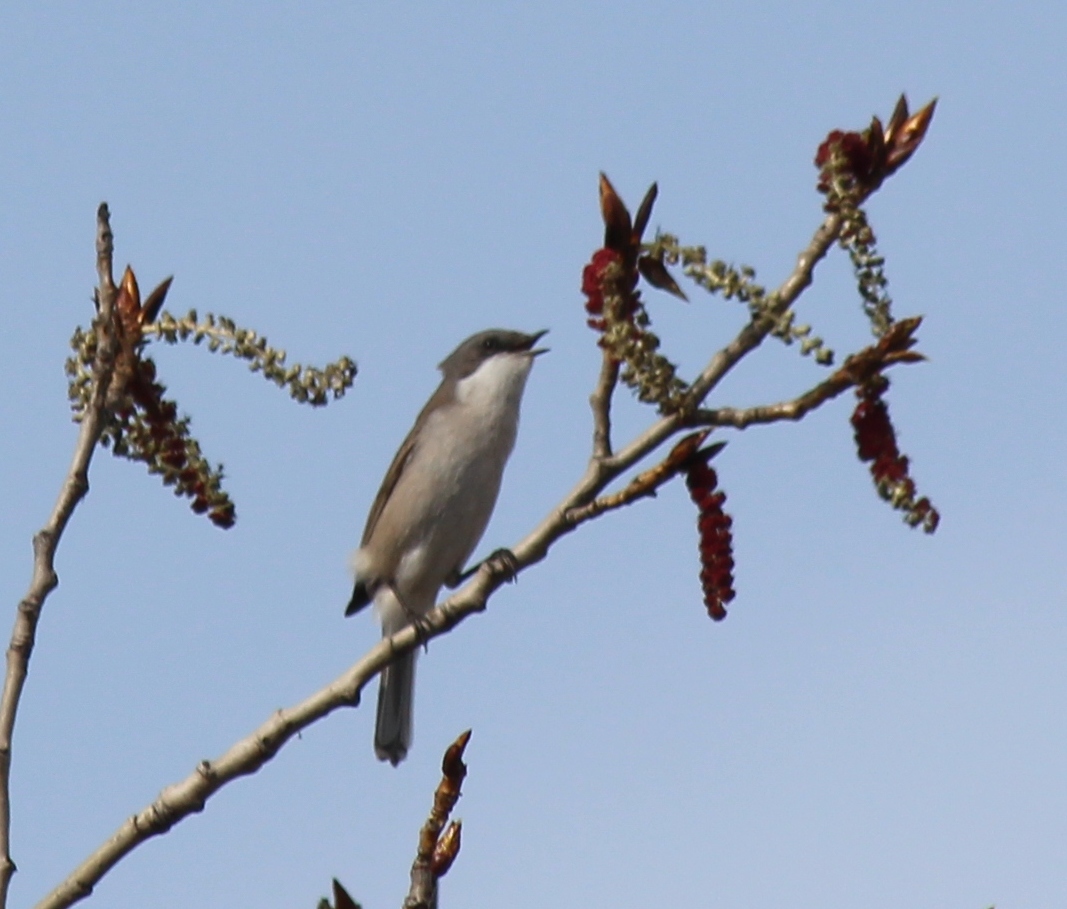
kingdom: Animalia
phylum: Chordata
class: Aves
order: Passeriformes
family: Sylviidae
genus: Sylvia
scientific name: Sylvia curruca
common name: Lesser whitethroat
